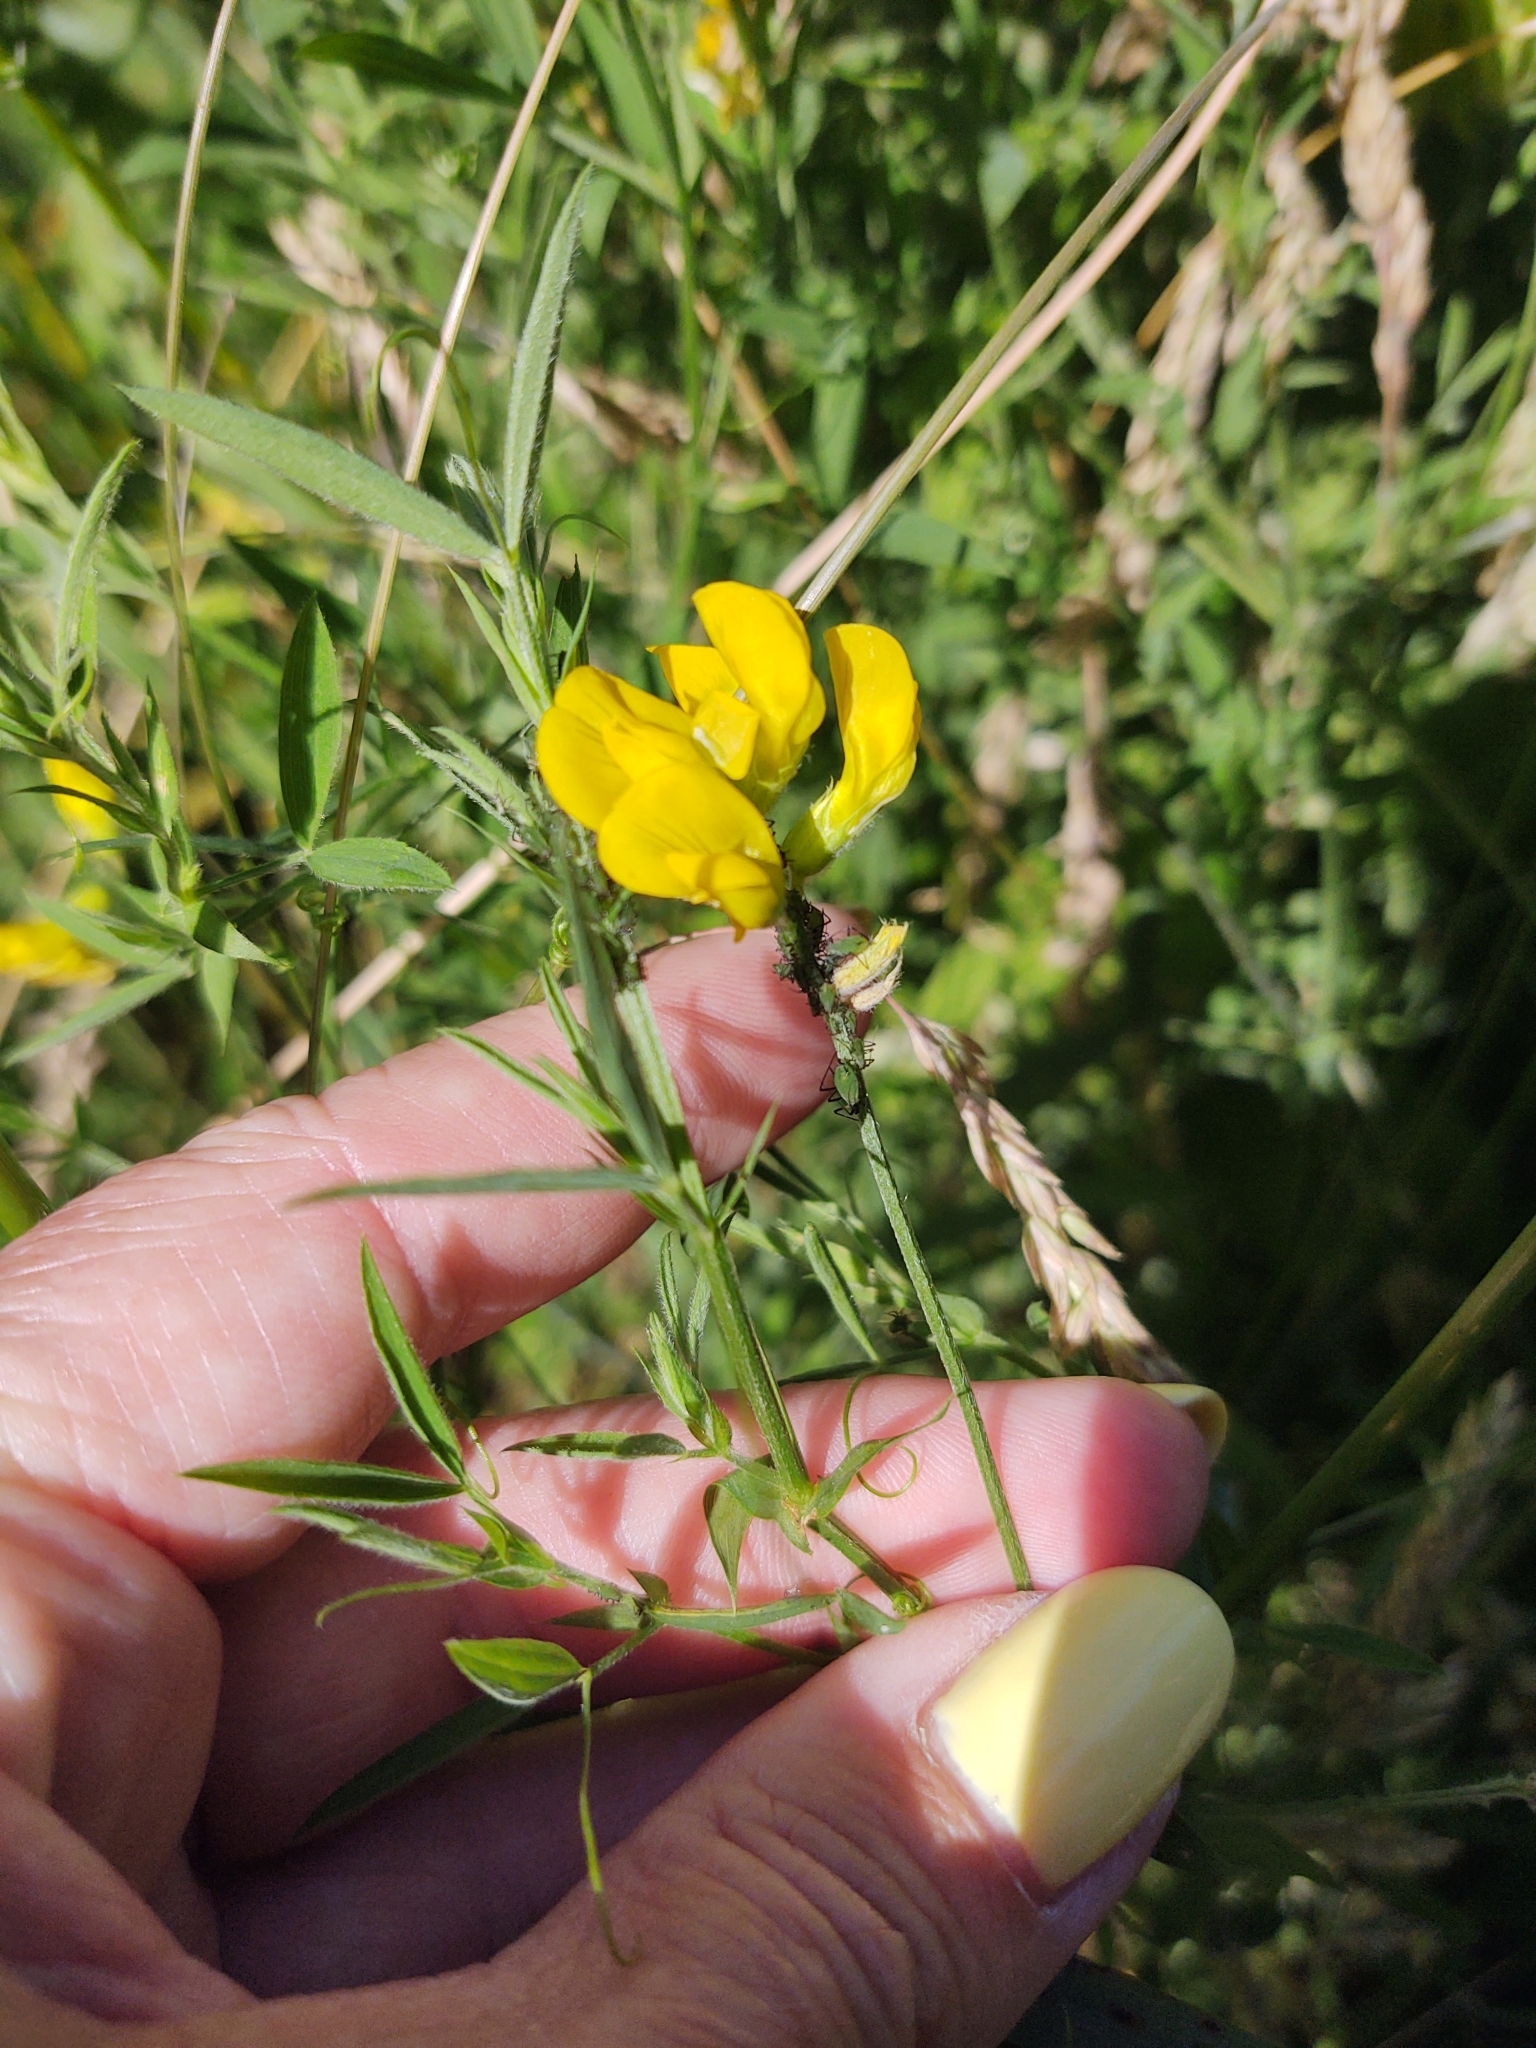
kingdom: Plantae
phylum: Tracheophyta
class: Magnoliopsida
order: Fabales
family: Fabaceae
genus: Lathyrus
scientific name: Lathyrus pratensis
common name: Meadow vetchling
